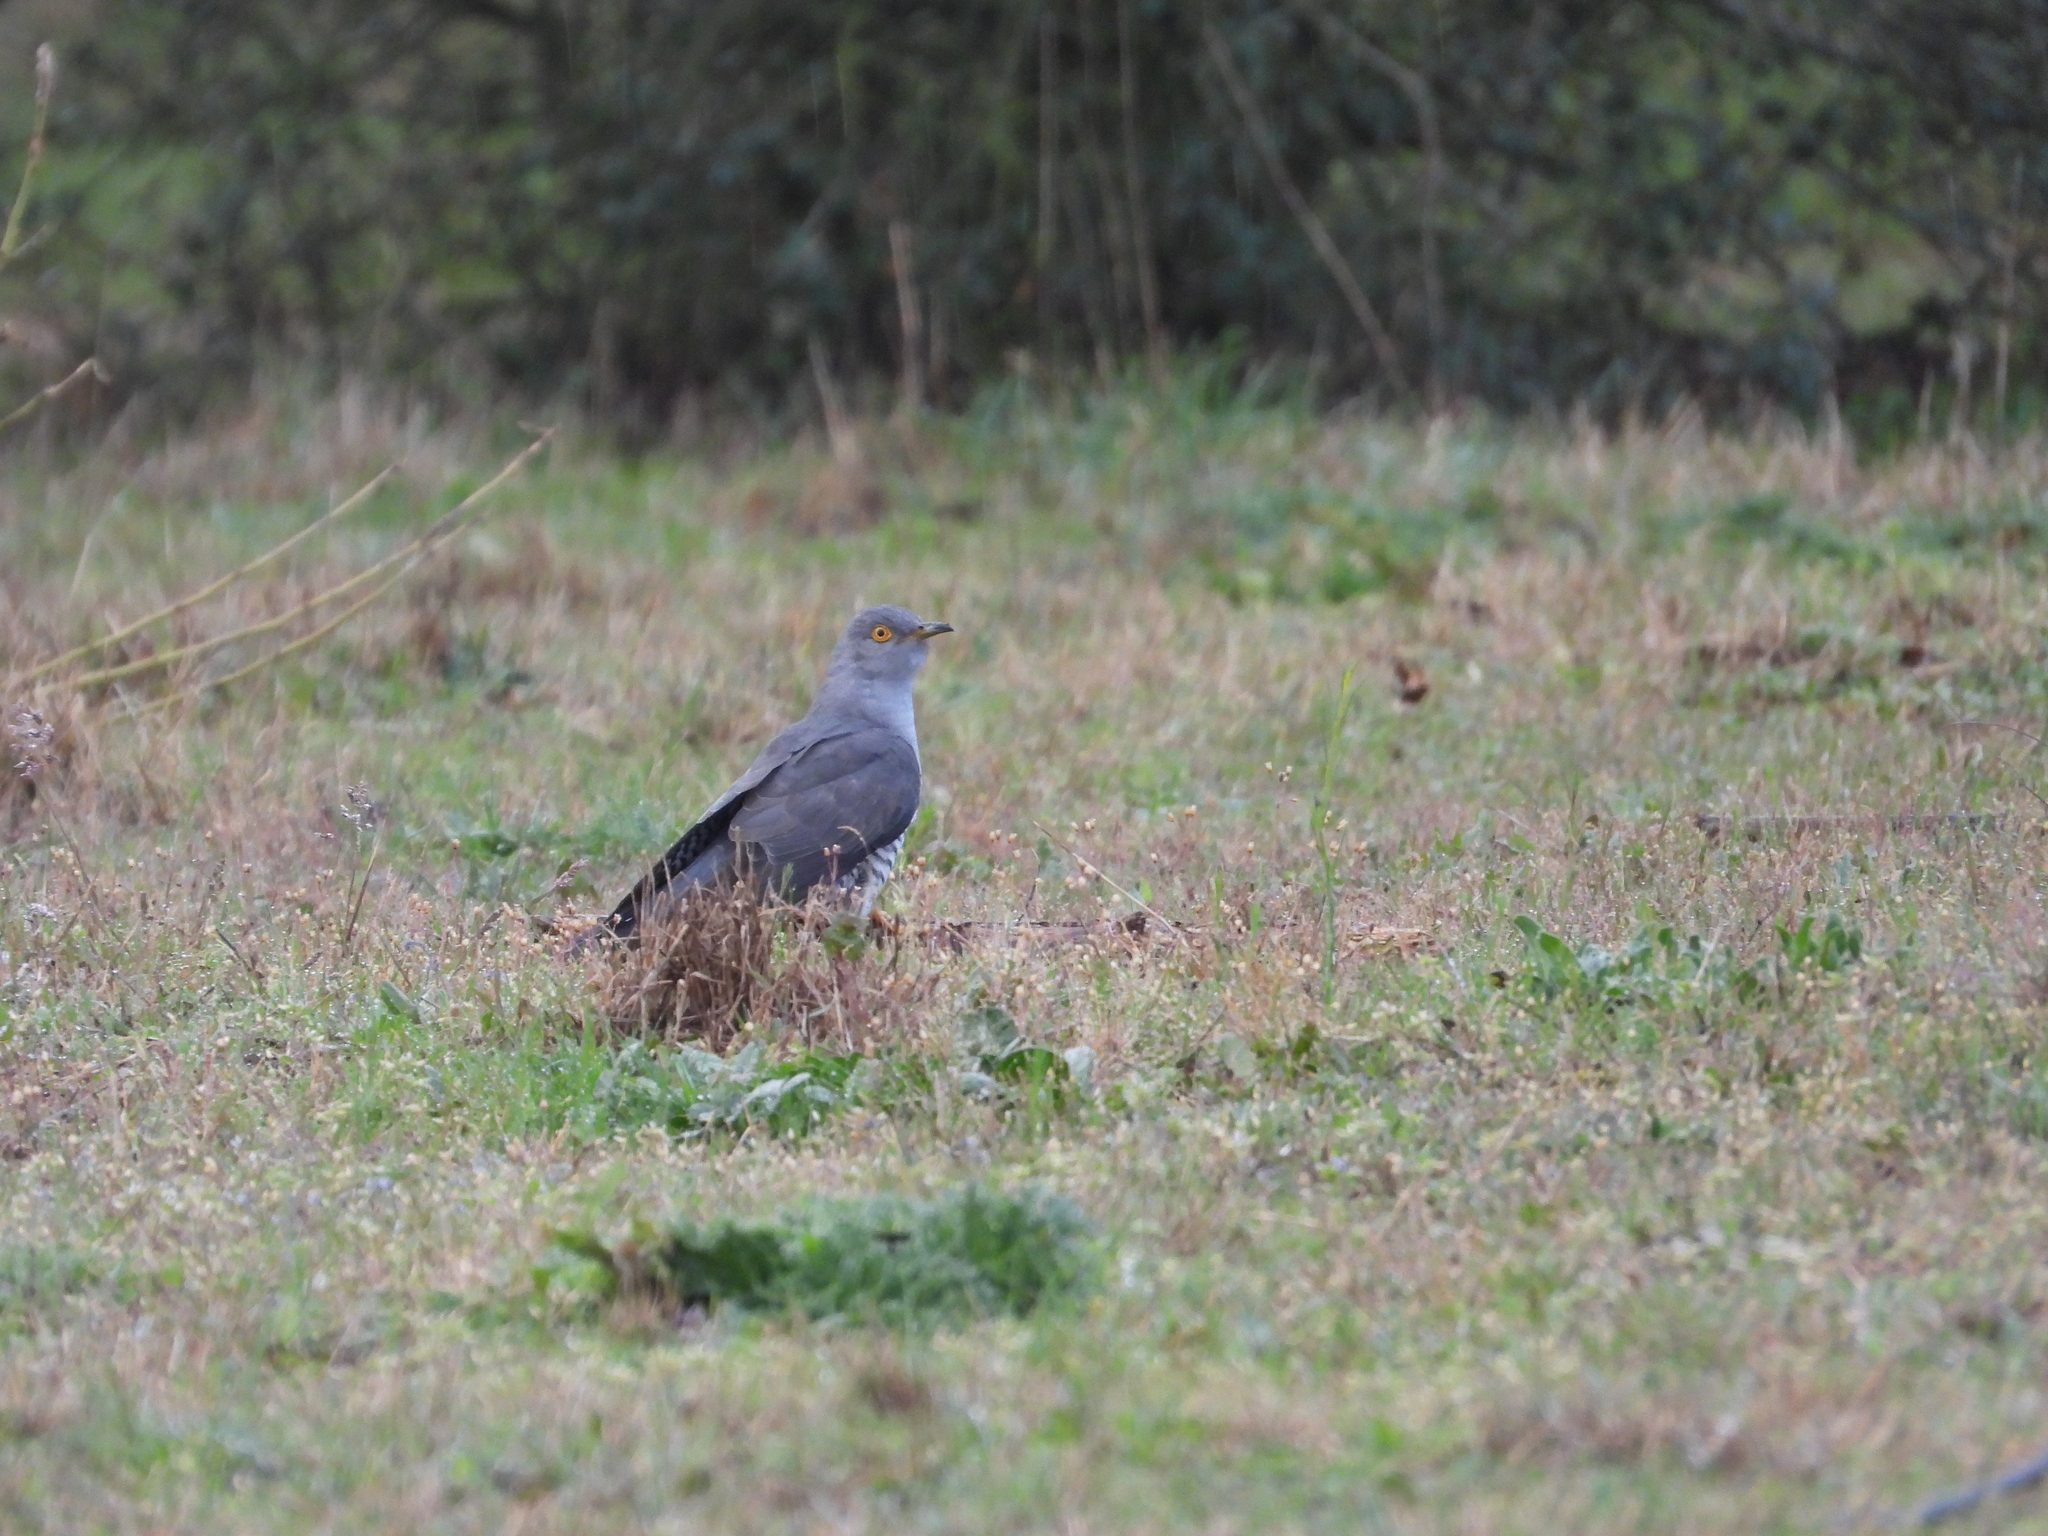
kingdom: Animalia
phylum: Chordata
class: Aves
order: Cuculiformes
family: Cuculidae
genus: Cuculus
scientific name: Cuculus canorus
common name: Common cuckoo
